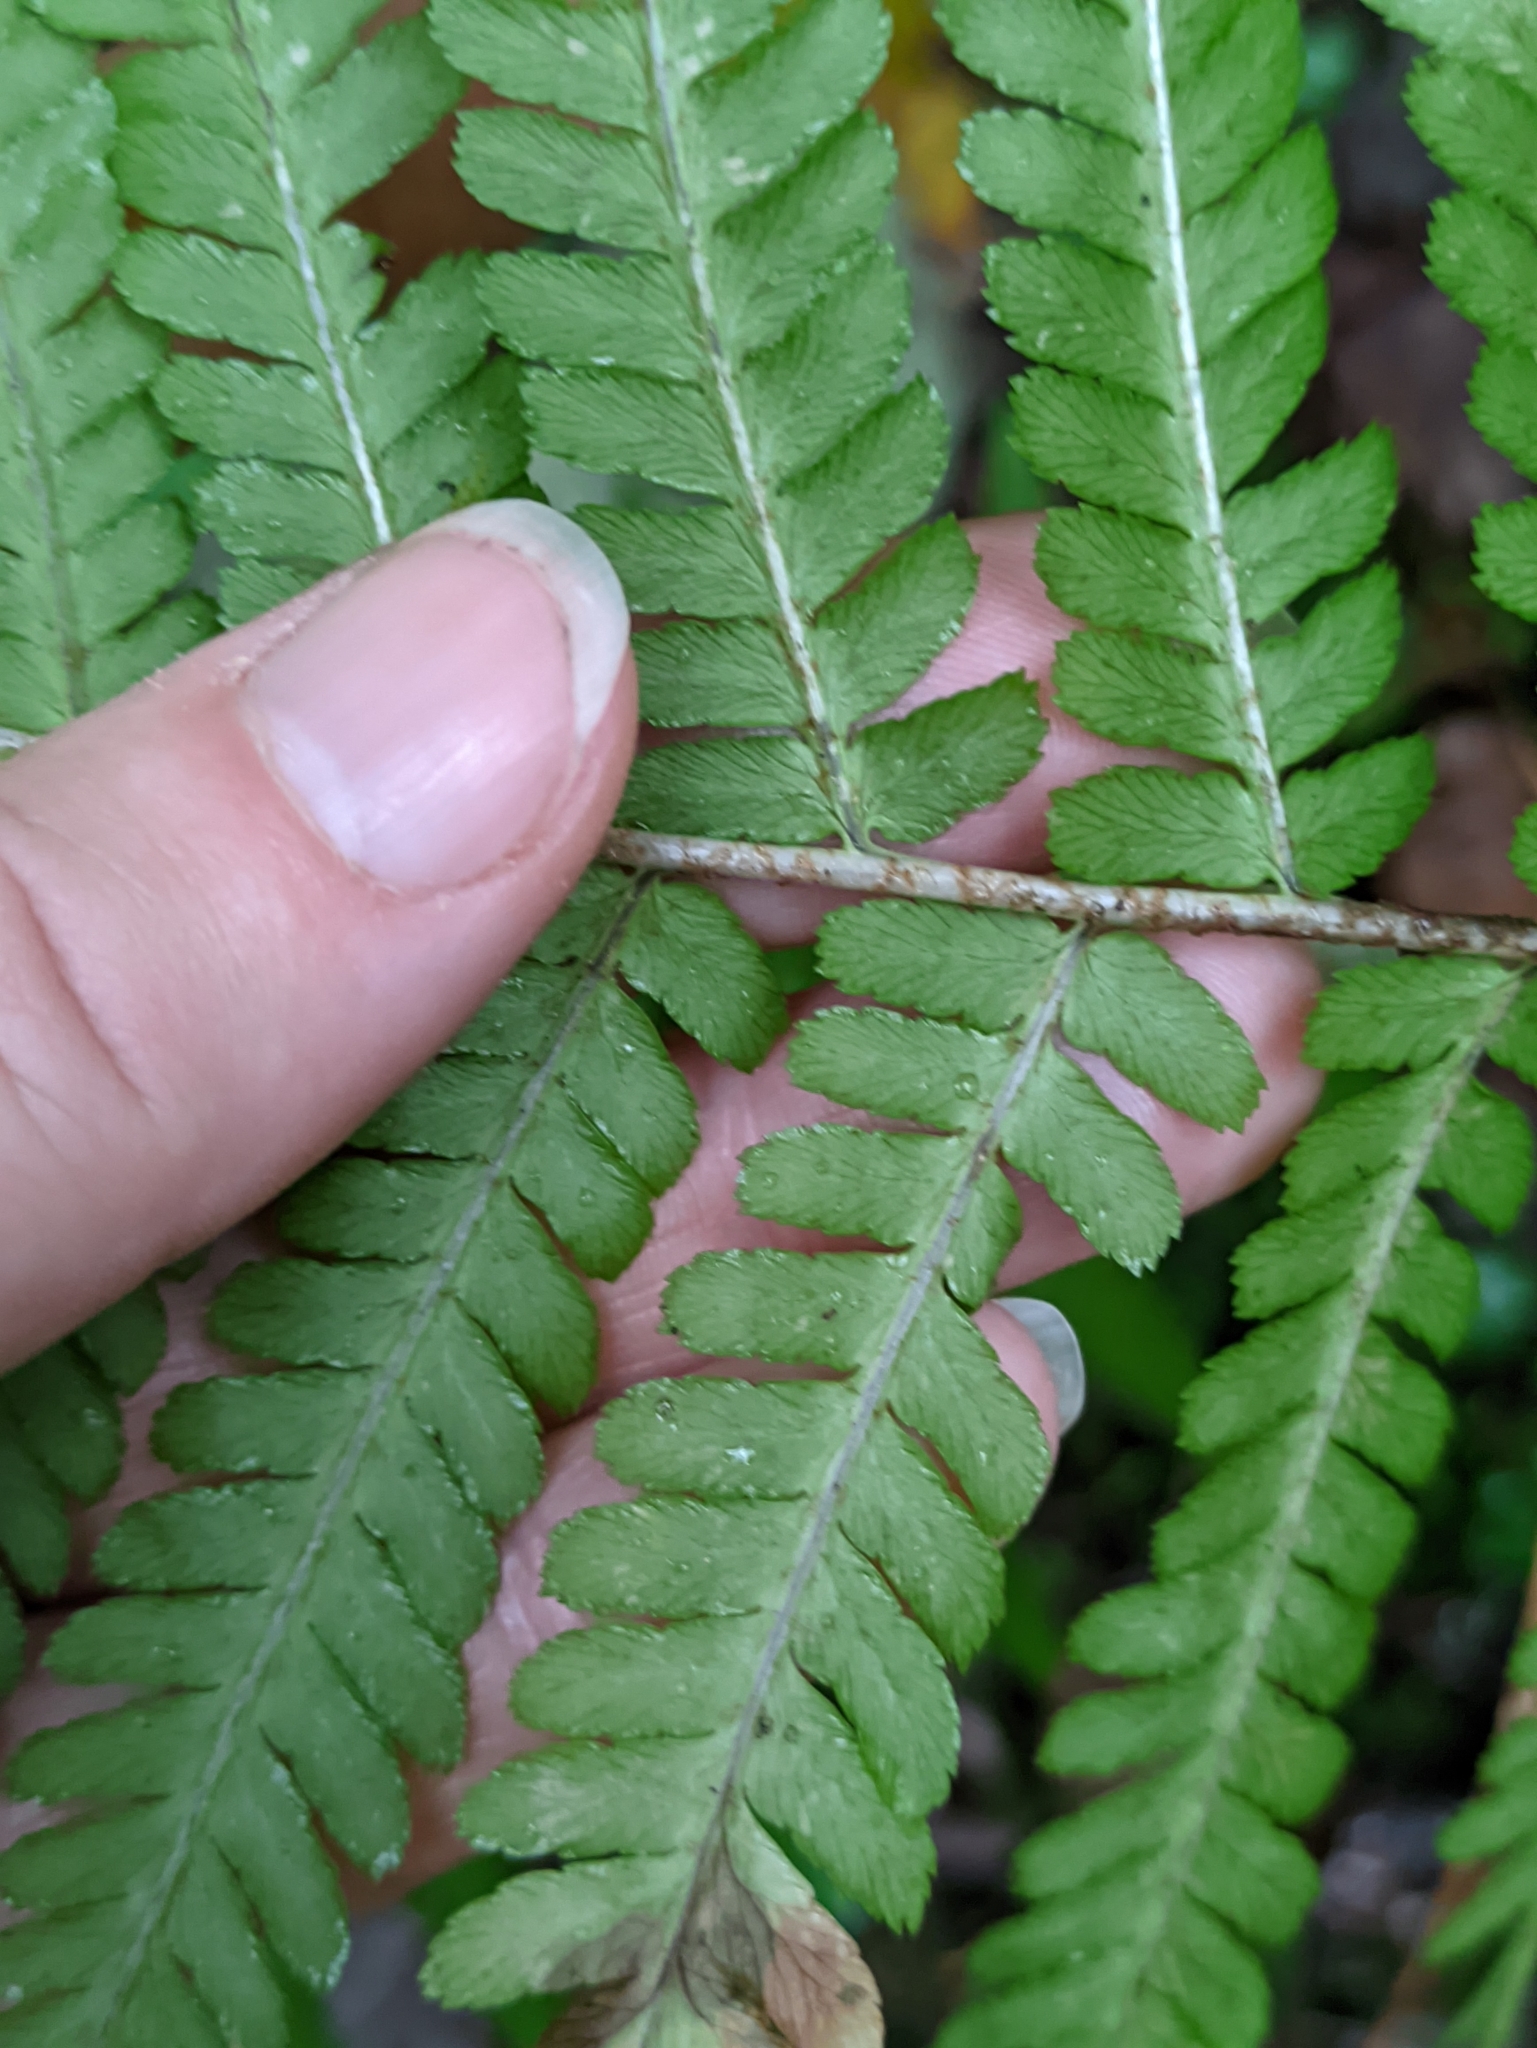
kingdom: Plantae
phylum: Tracheophyta
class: Polypodiopsida
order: Polypodiales
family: Dryopteridaceae
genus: Dryopteris
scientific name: Dryopteris filix-mas
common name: Male fern
